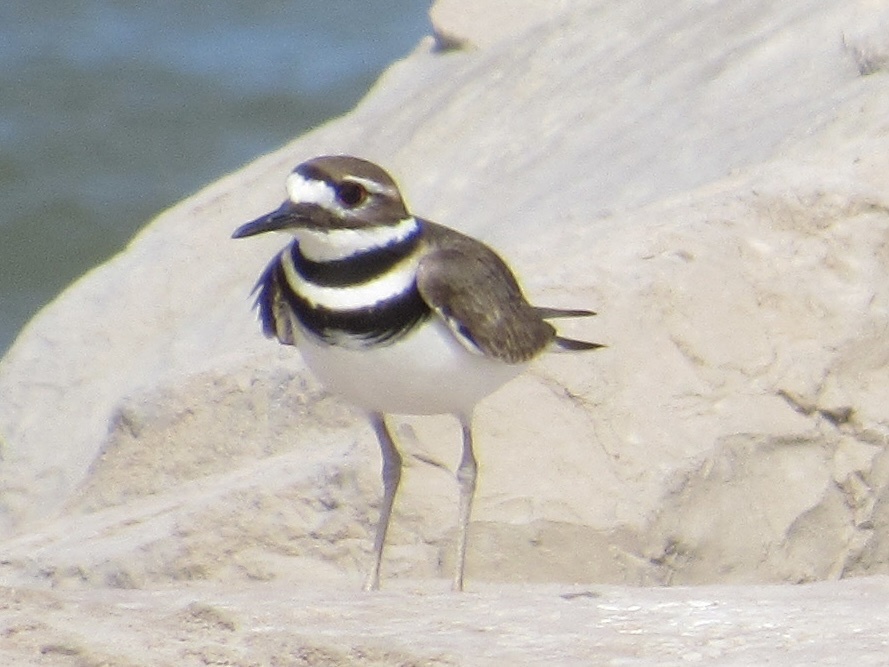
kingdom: Animalia
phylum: Chordata
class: Aves
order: Charadriiformes
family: Charadriidae
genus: Charadrius
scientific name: Charadrius vociferus
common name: Killdeer
